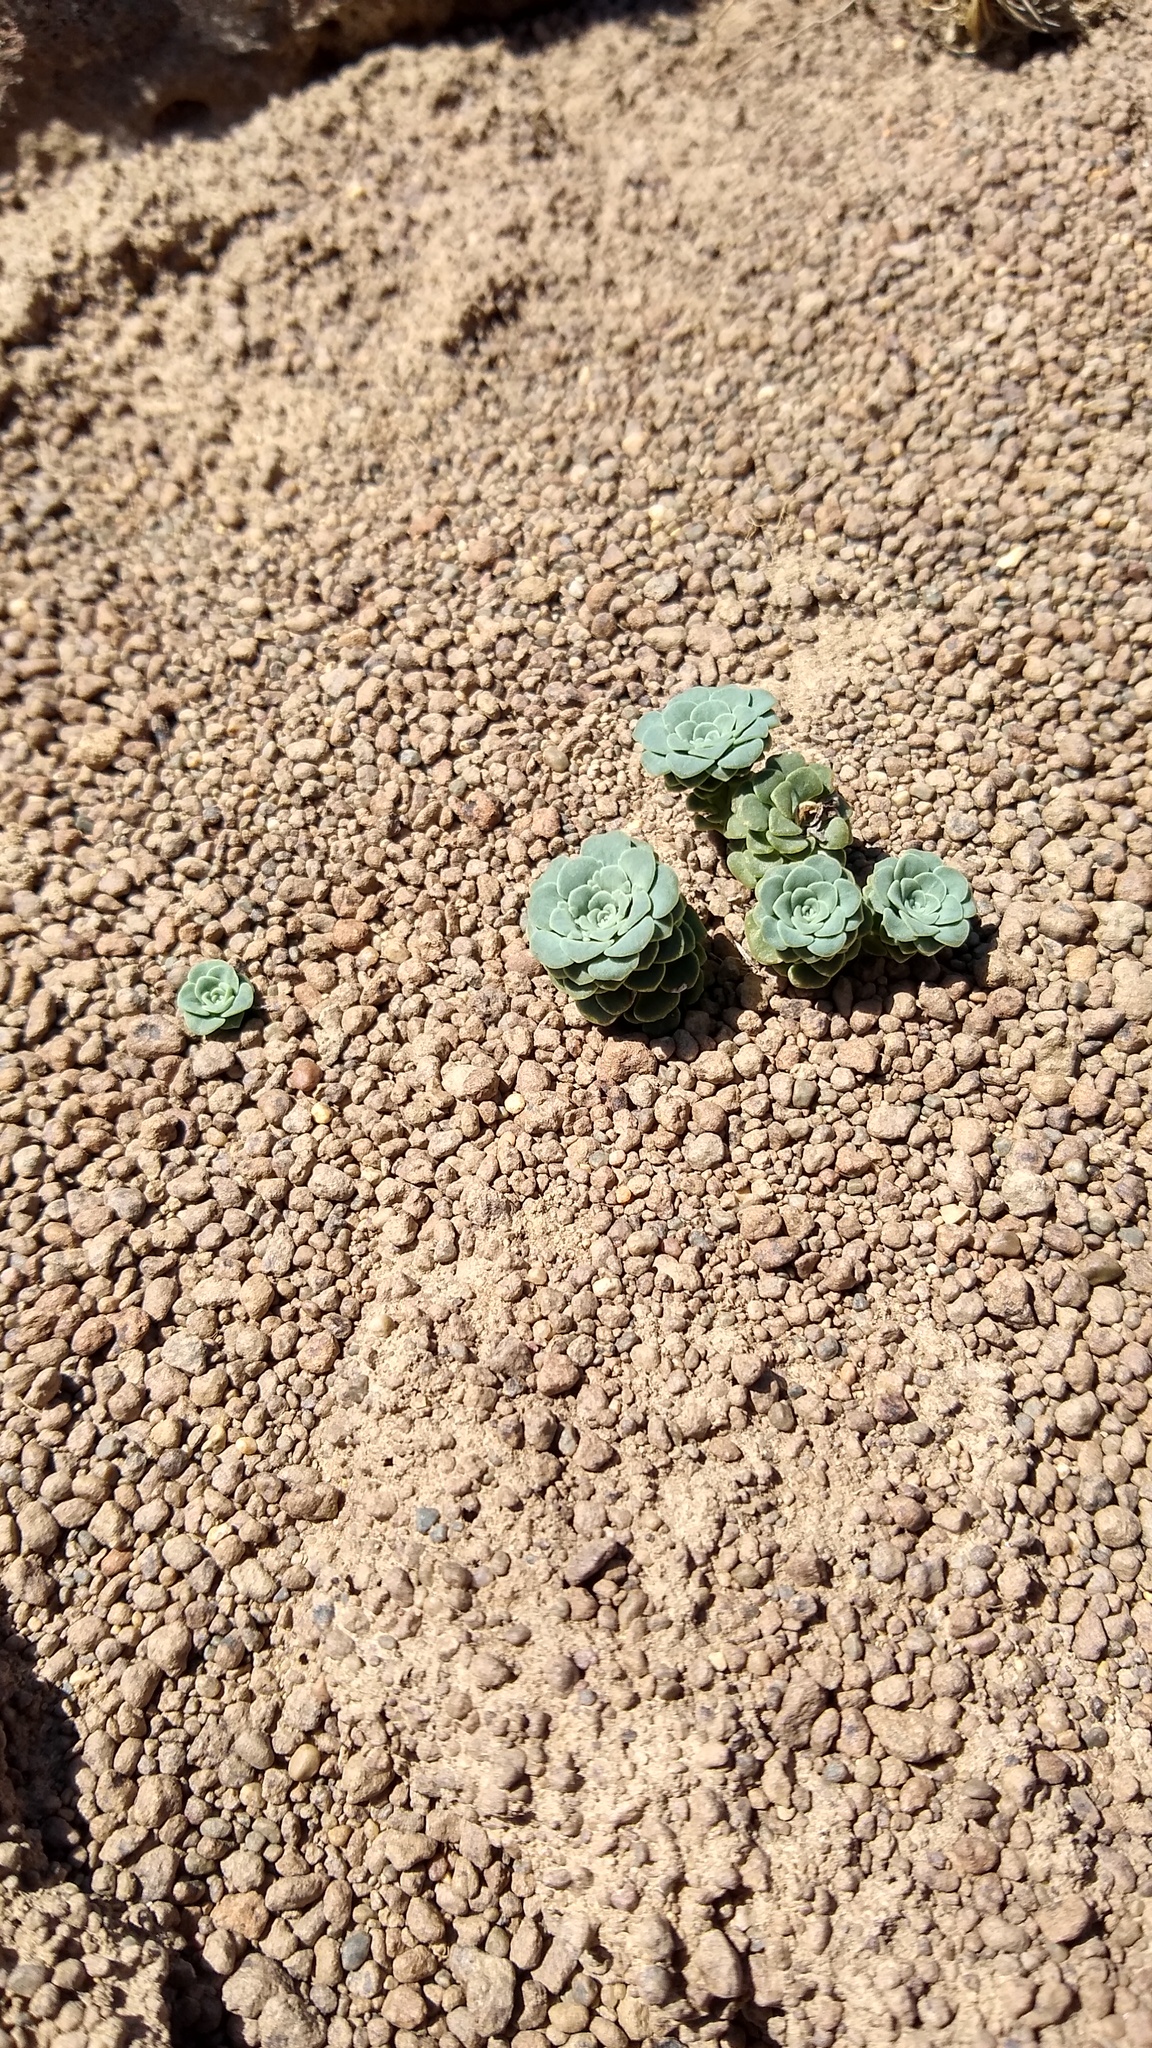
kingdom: Plantae
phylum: Tracheophyta
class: Magnoliopsida
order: Asterales
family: Calyceraceae
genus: Moschopsis
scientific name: Moschopsis rosulata
